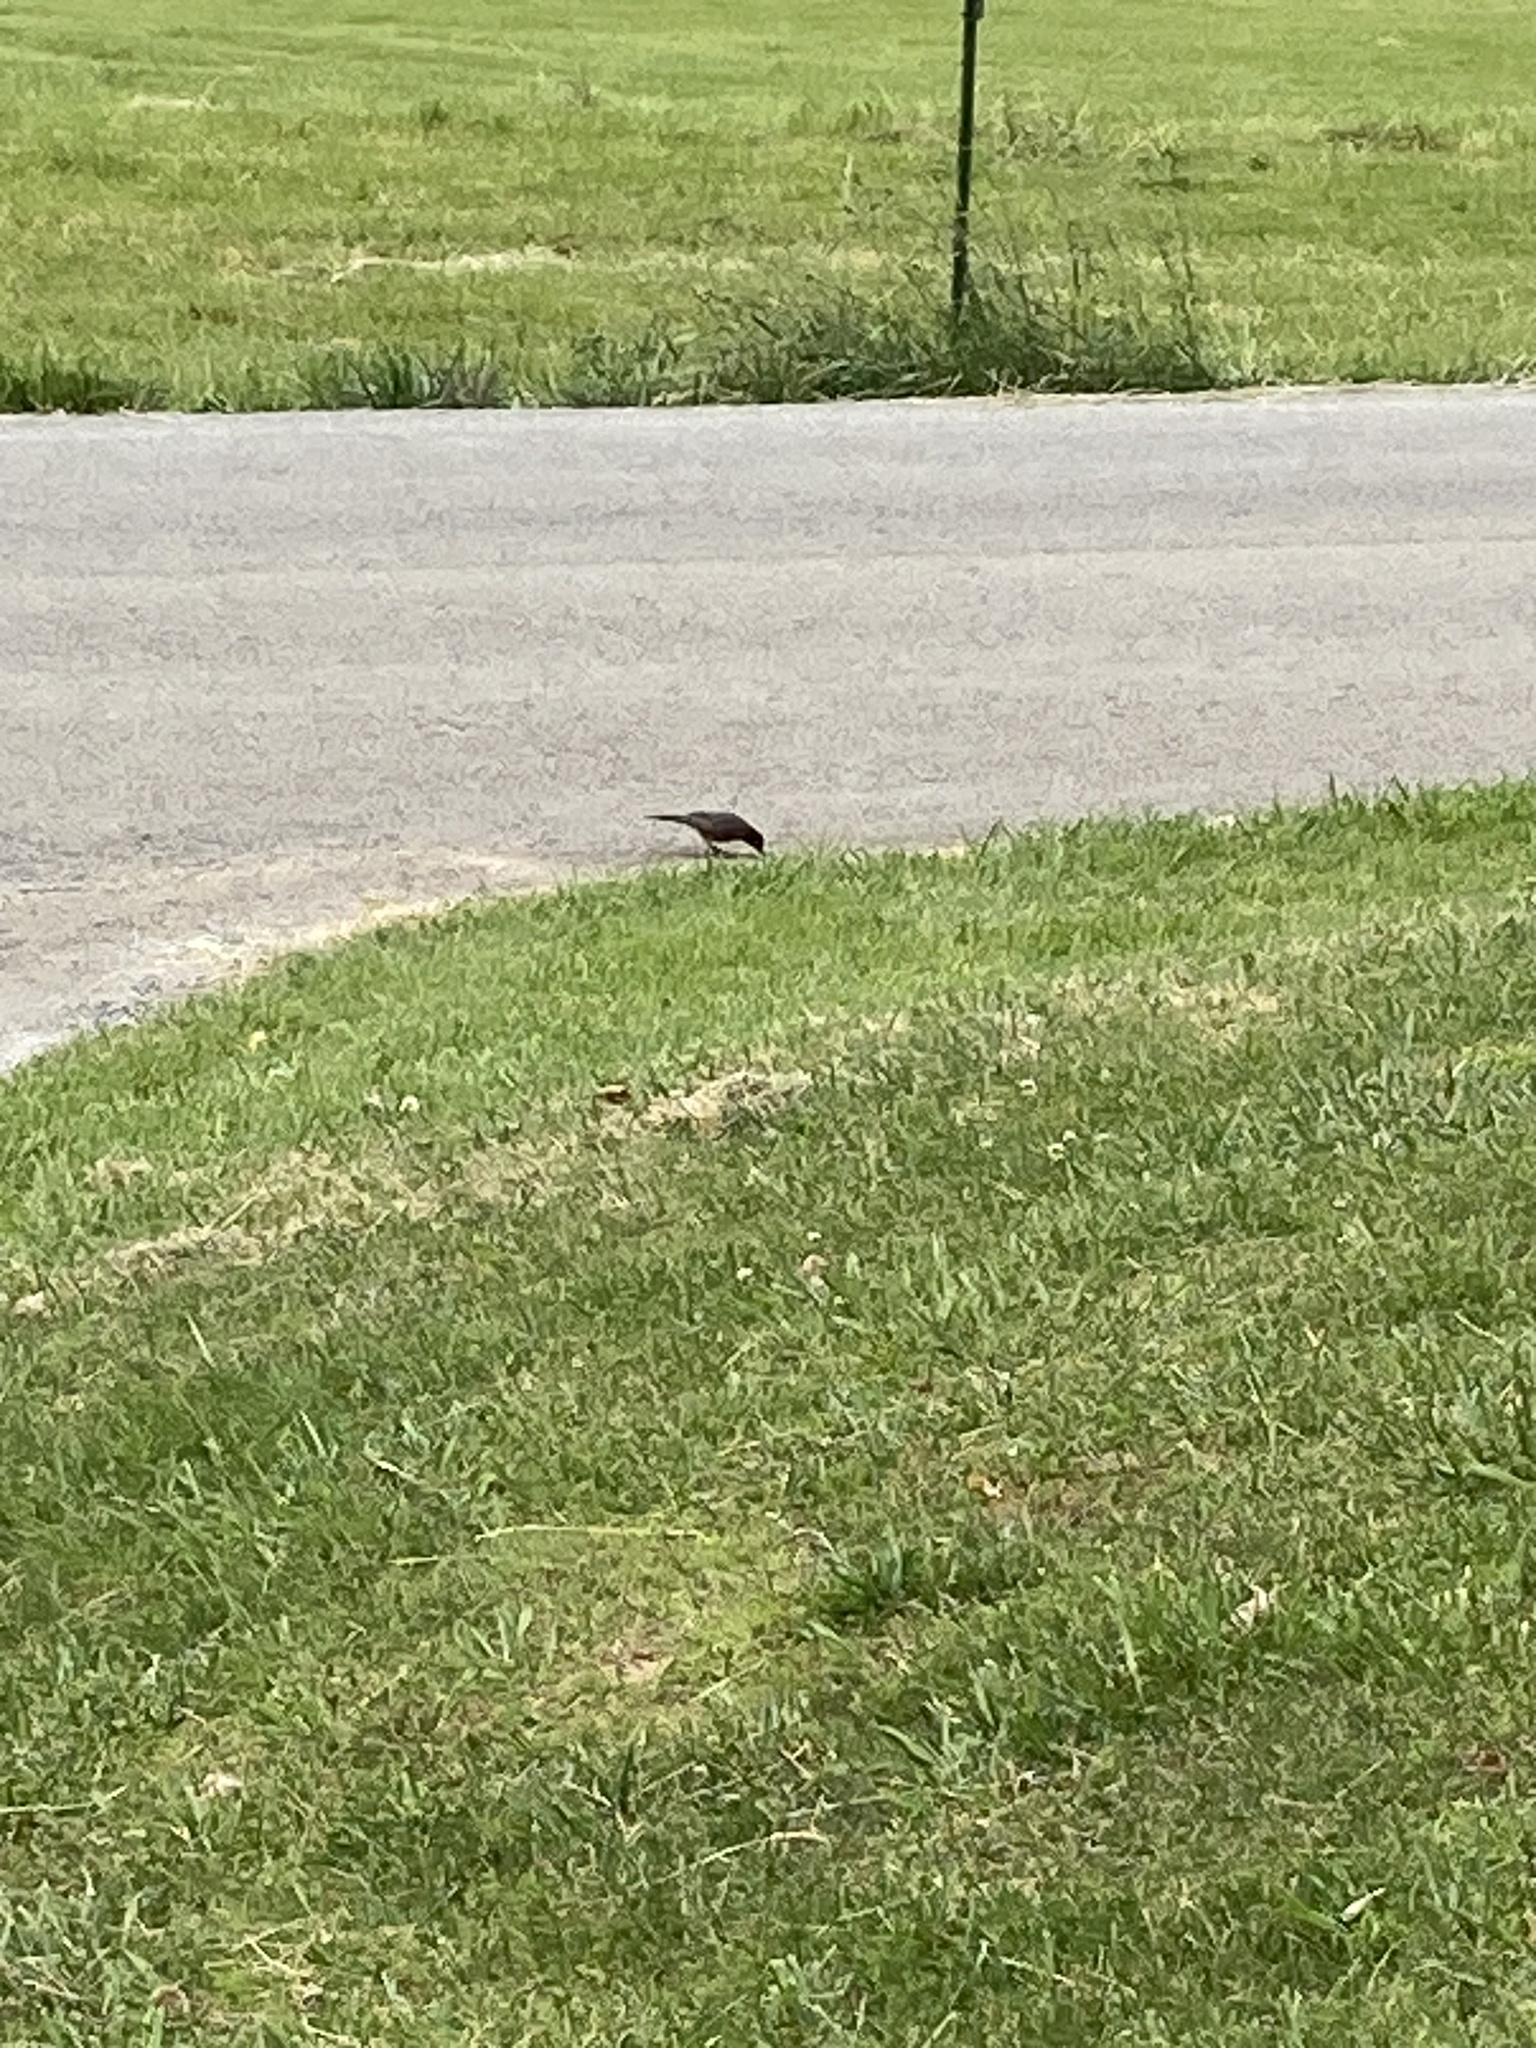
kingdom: Animalia
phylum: Chordata
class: Aves
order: Passeriformes
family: Turdidae
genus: Turdus
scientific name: Turdus migratorius
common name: American robin
